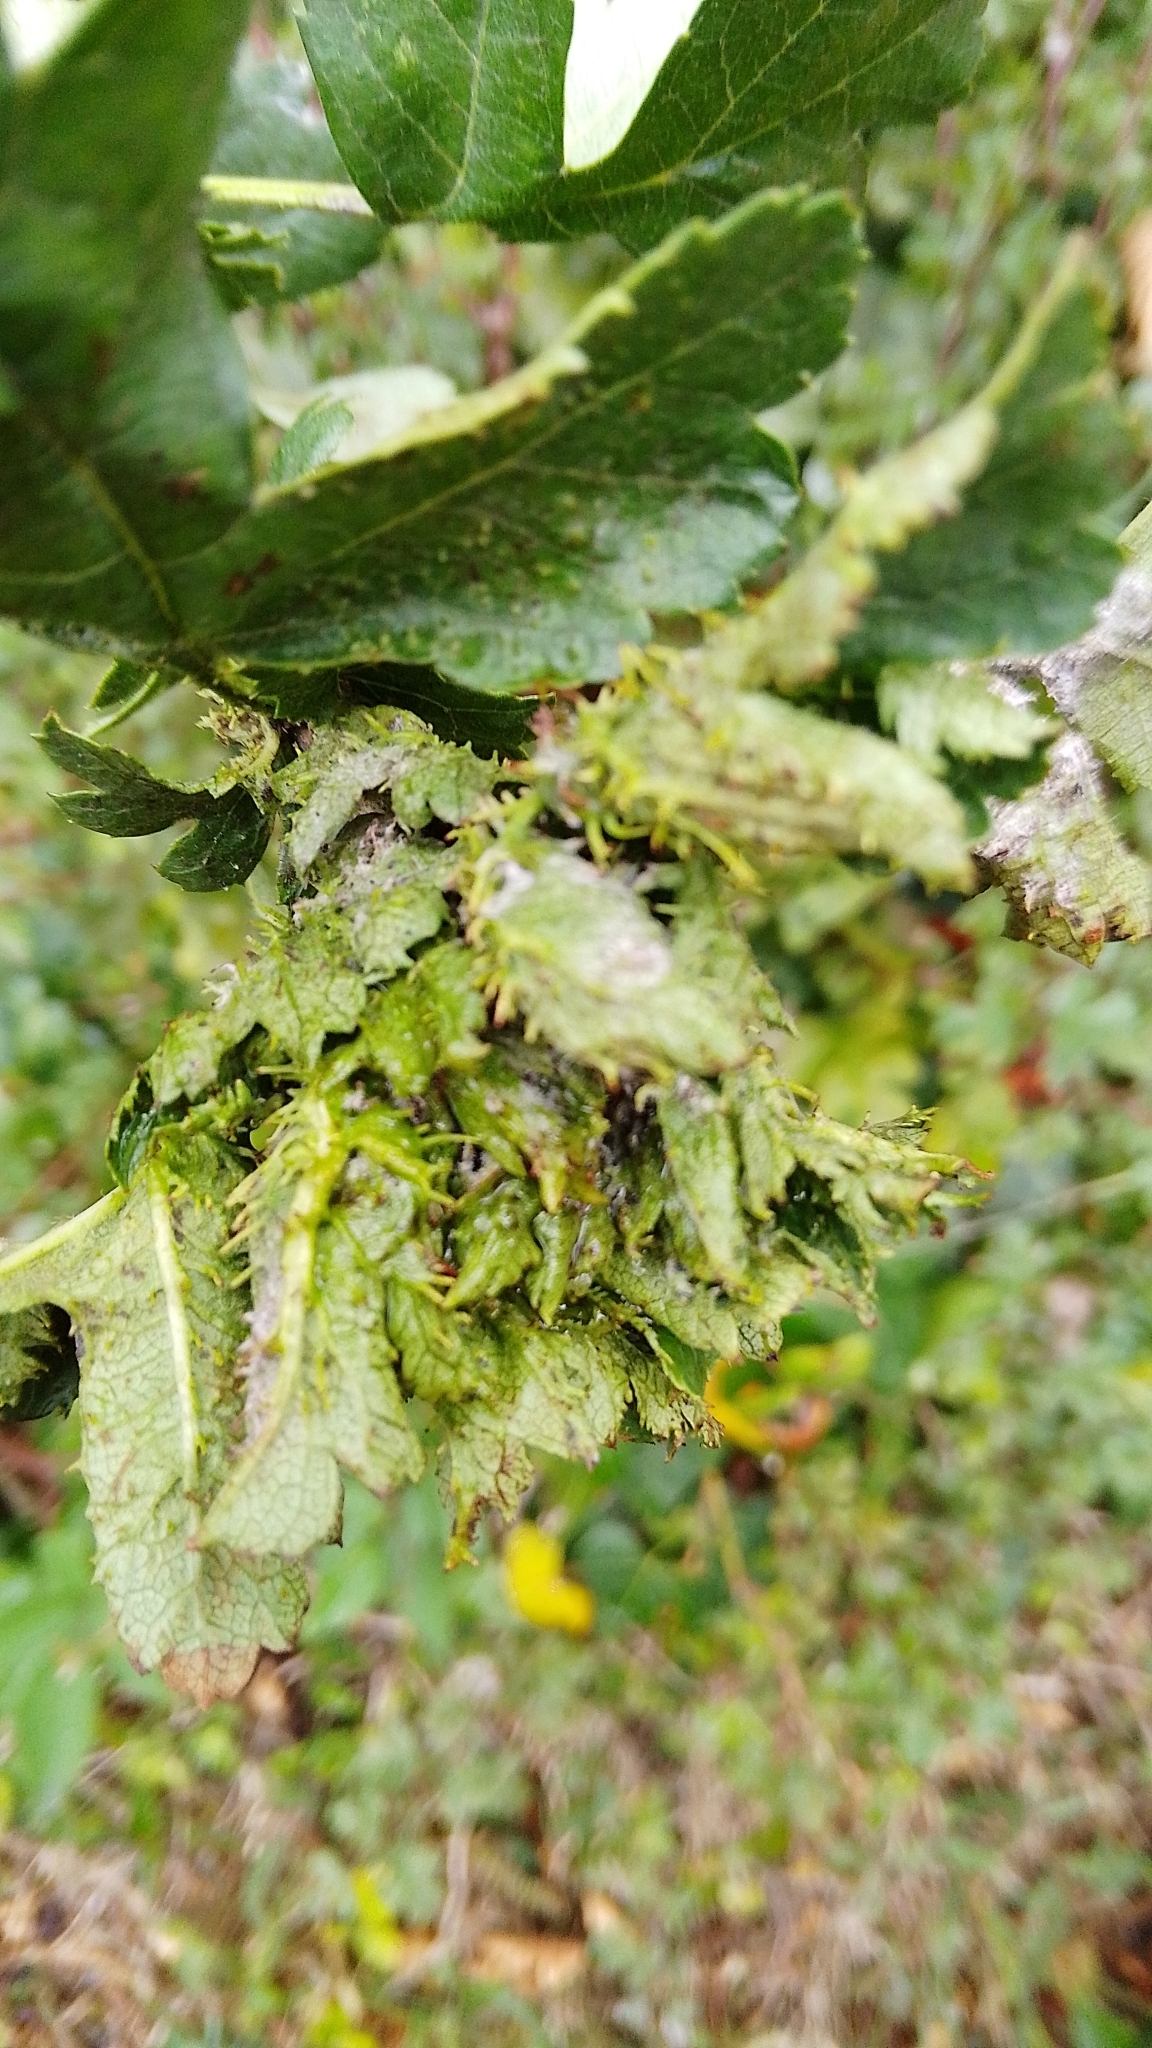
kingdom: Animalia
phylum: Arthropoda
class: Insecta
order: Diptera
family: Cecidomyiidae
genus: Dasineura
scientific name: Dasineura crataegi
